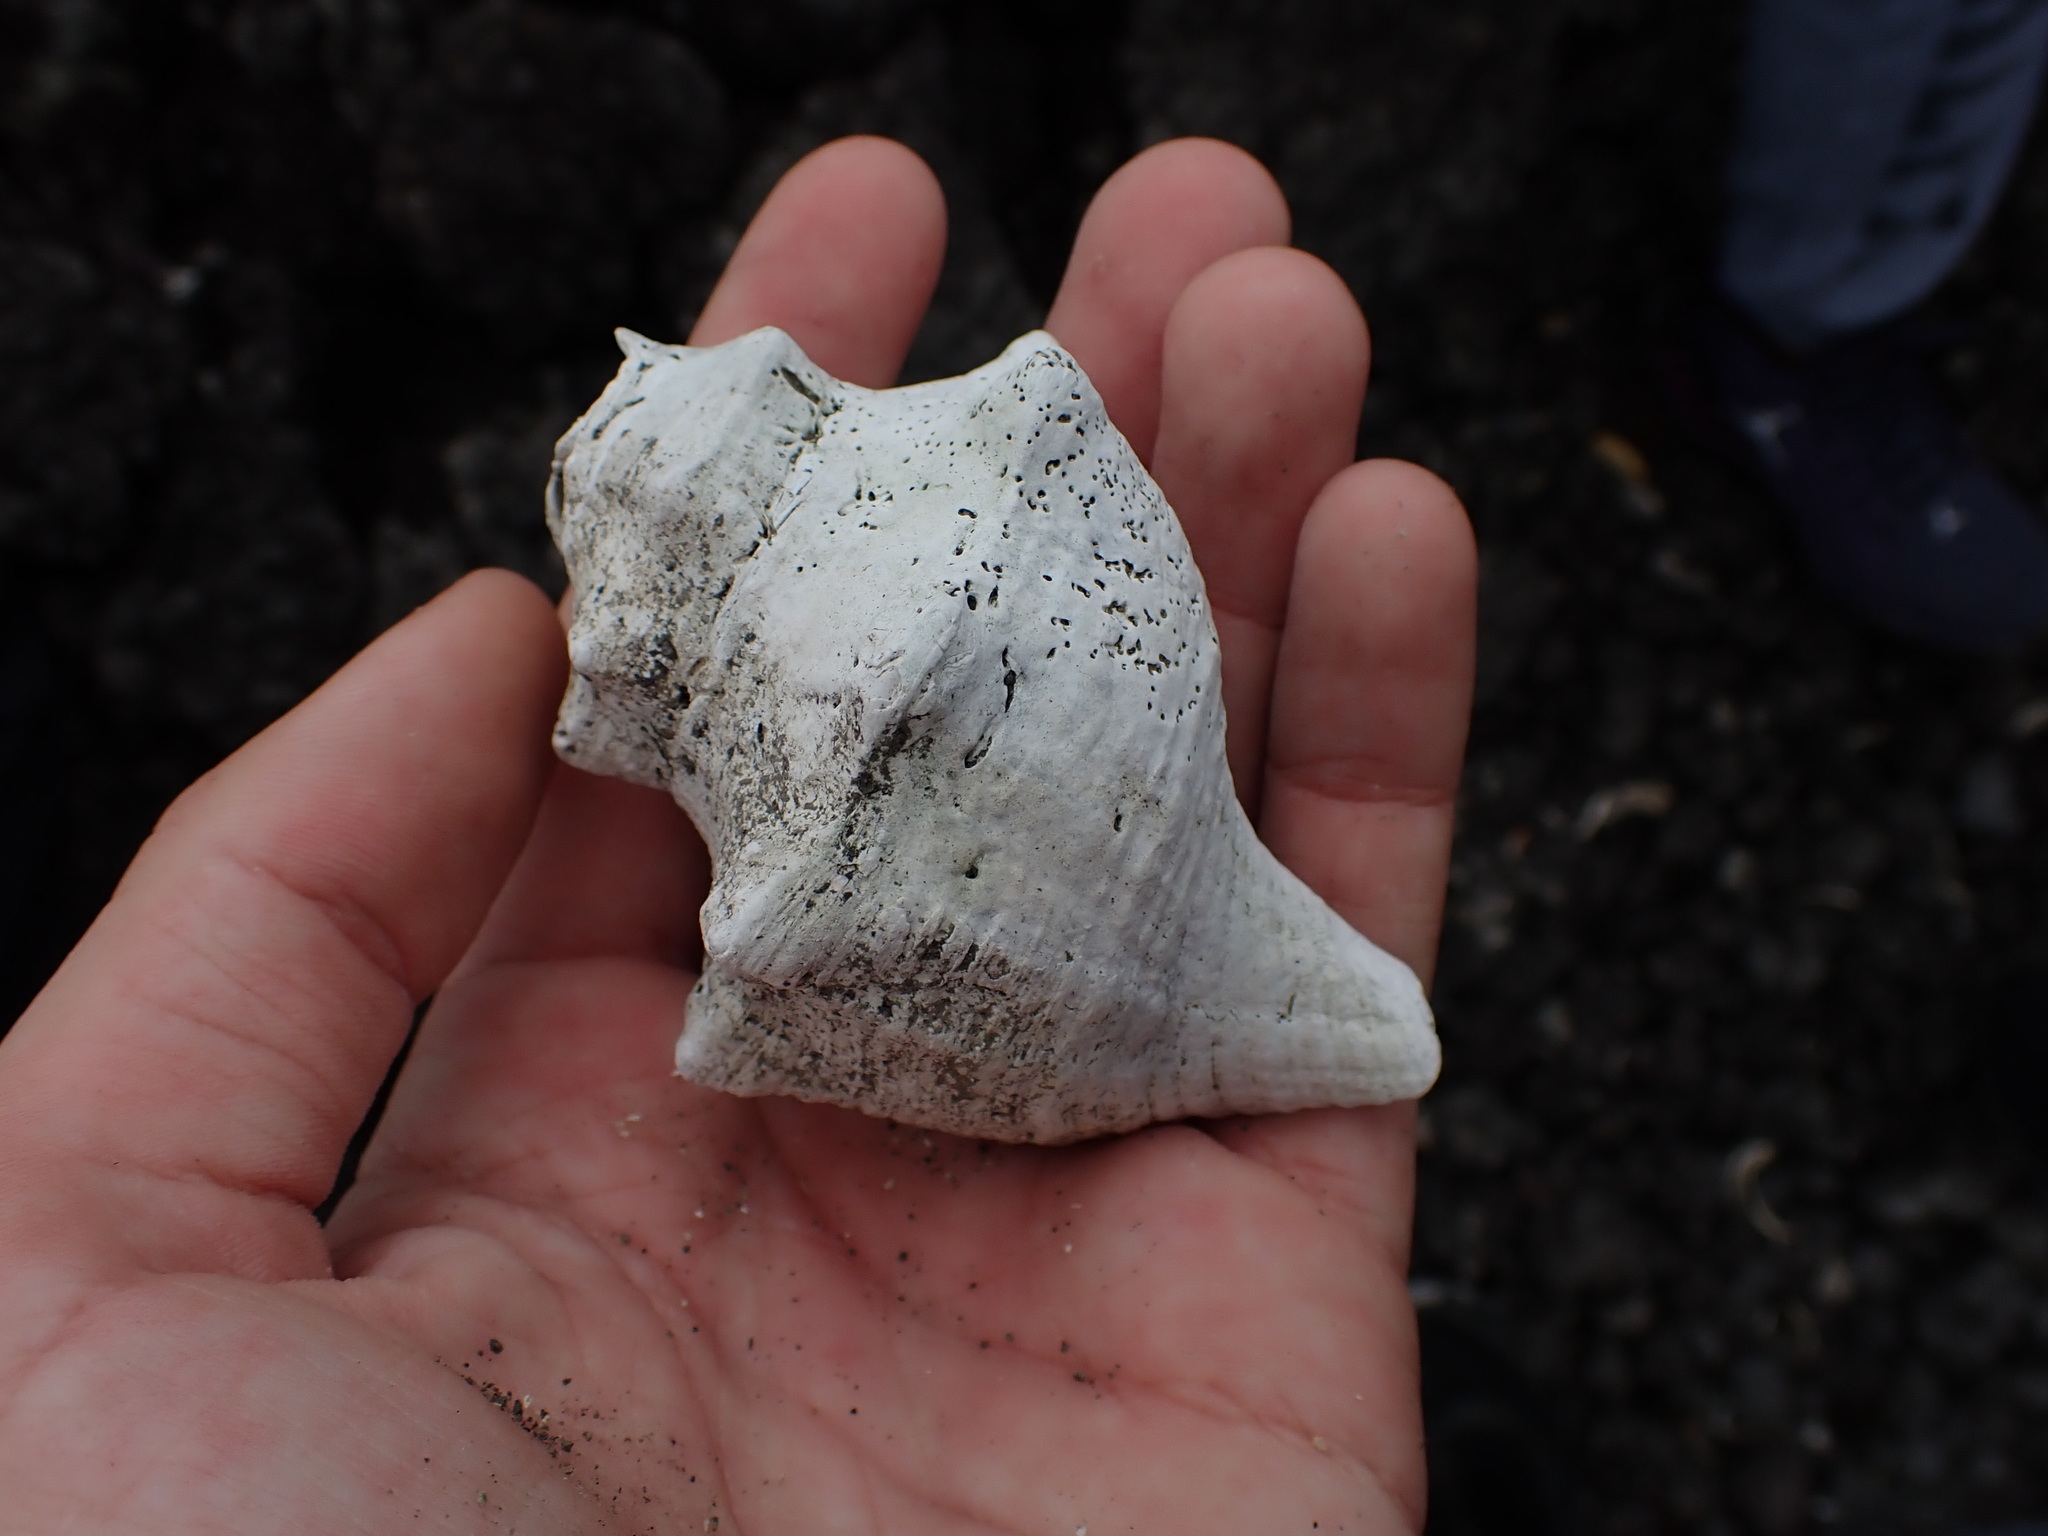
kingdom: Animalia
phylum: Mollusca
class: Gastropoda
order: Neogastropoda
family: Austrosiphonidae
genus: Penion
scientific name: Penion sulcatus
